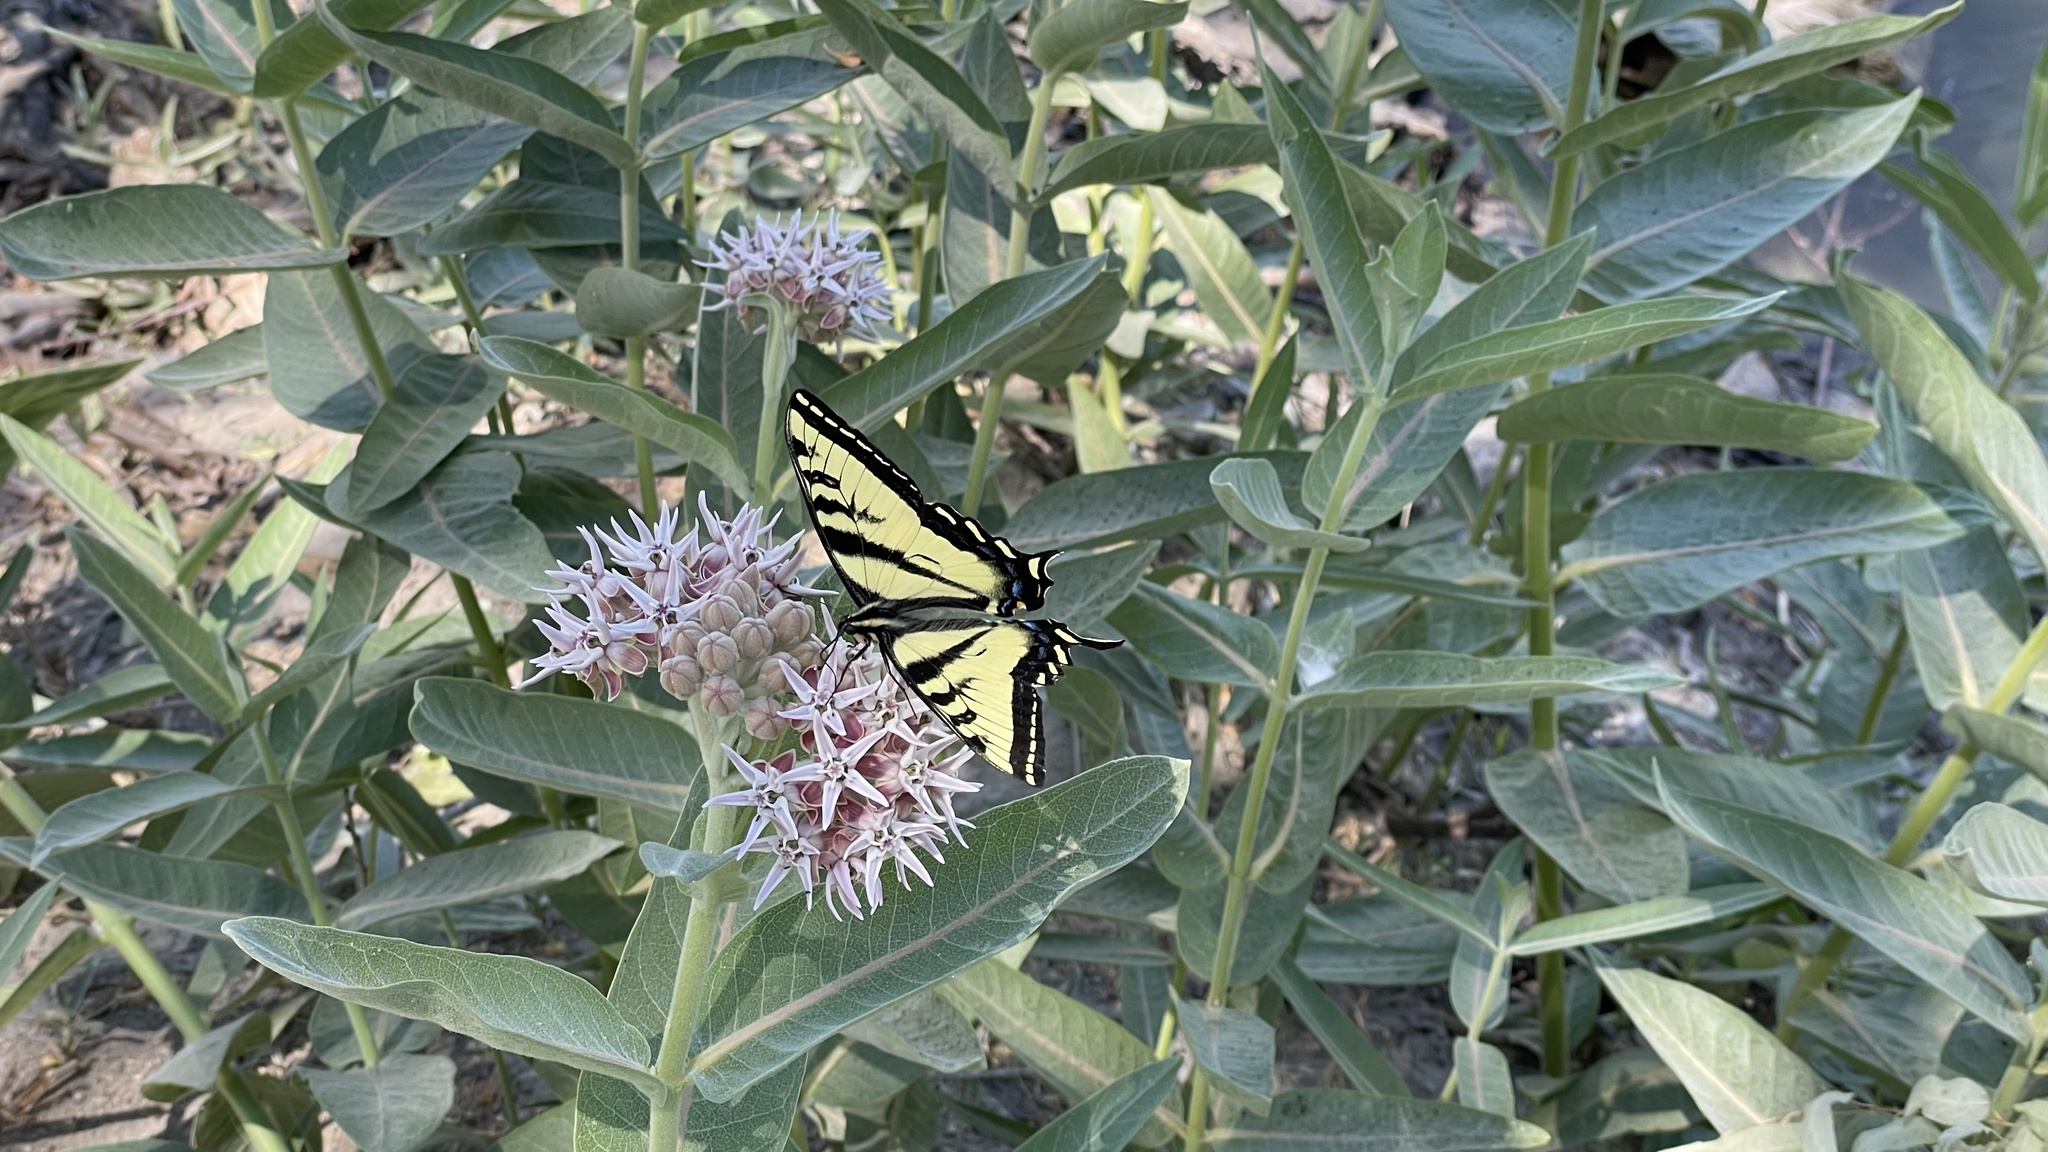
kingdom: Plantae
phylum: Tracheophyta
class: Magnoliopsida
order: Gentianales
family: Apocynaceae
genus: Asclepias
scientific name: Asclepias speciosa
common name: Showy milkweed
